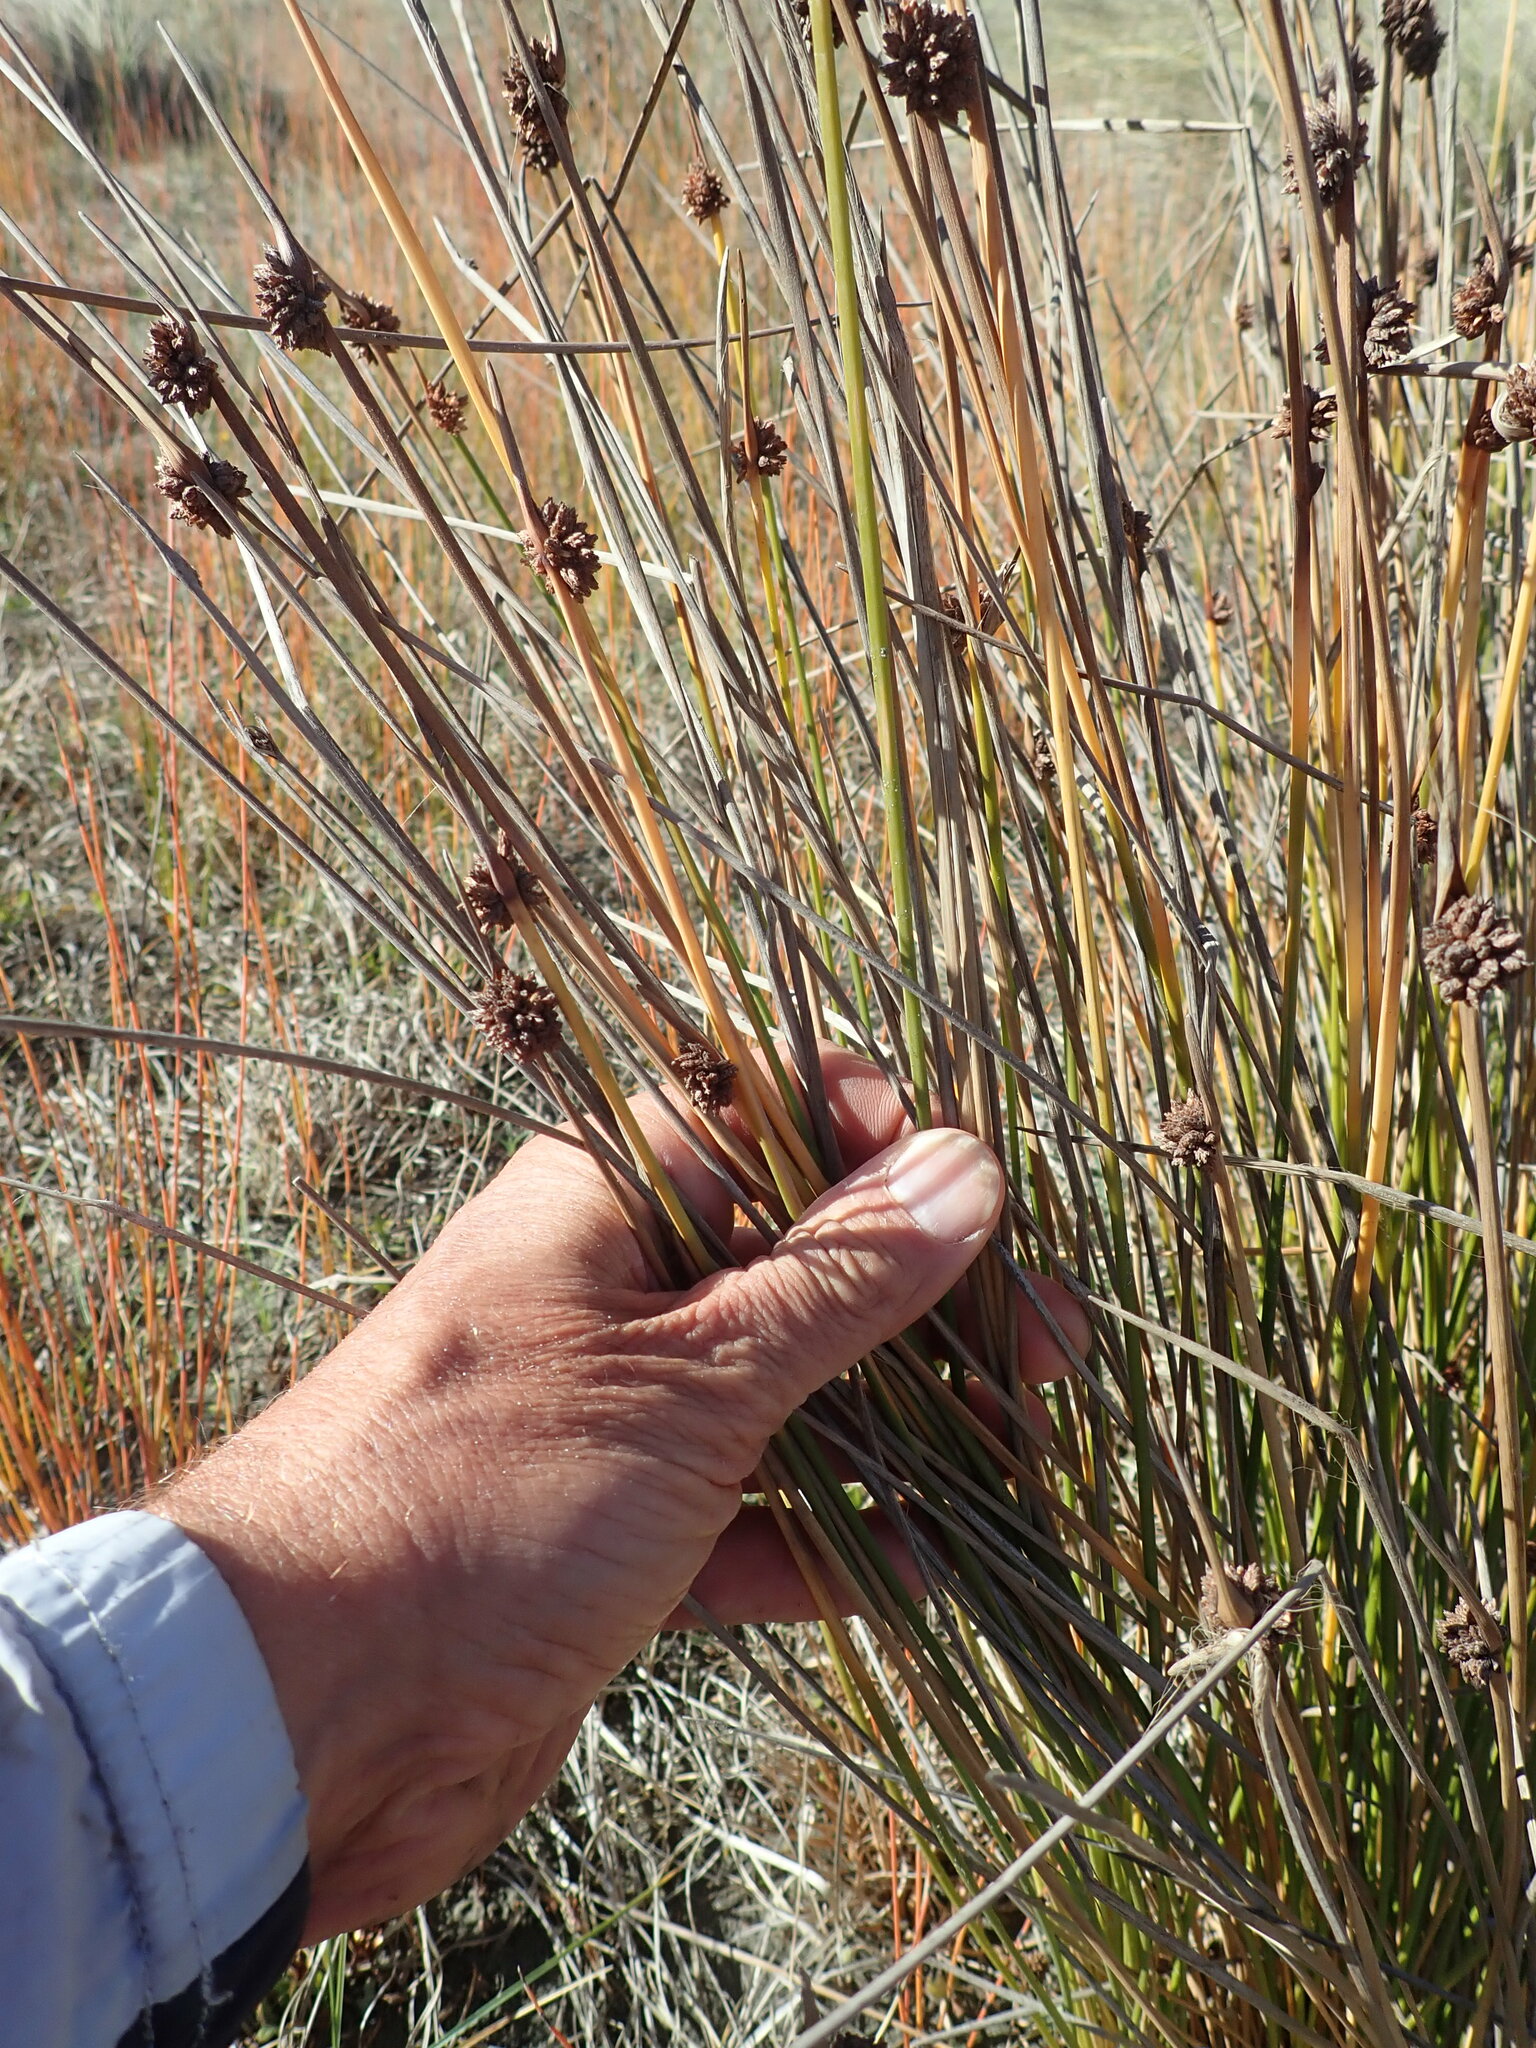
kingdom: Plantae
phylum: Tracheophyta
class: Liliopsida
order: Poales
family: Cyperaceae
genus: Ficinia
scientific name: Ficinia nodosa
